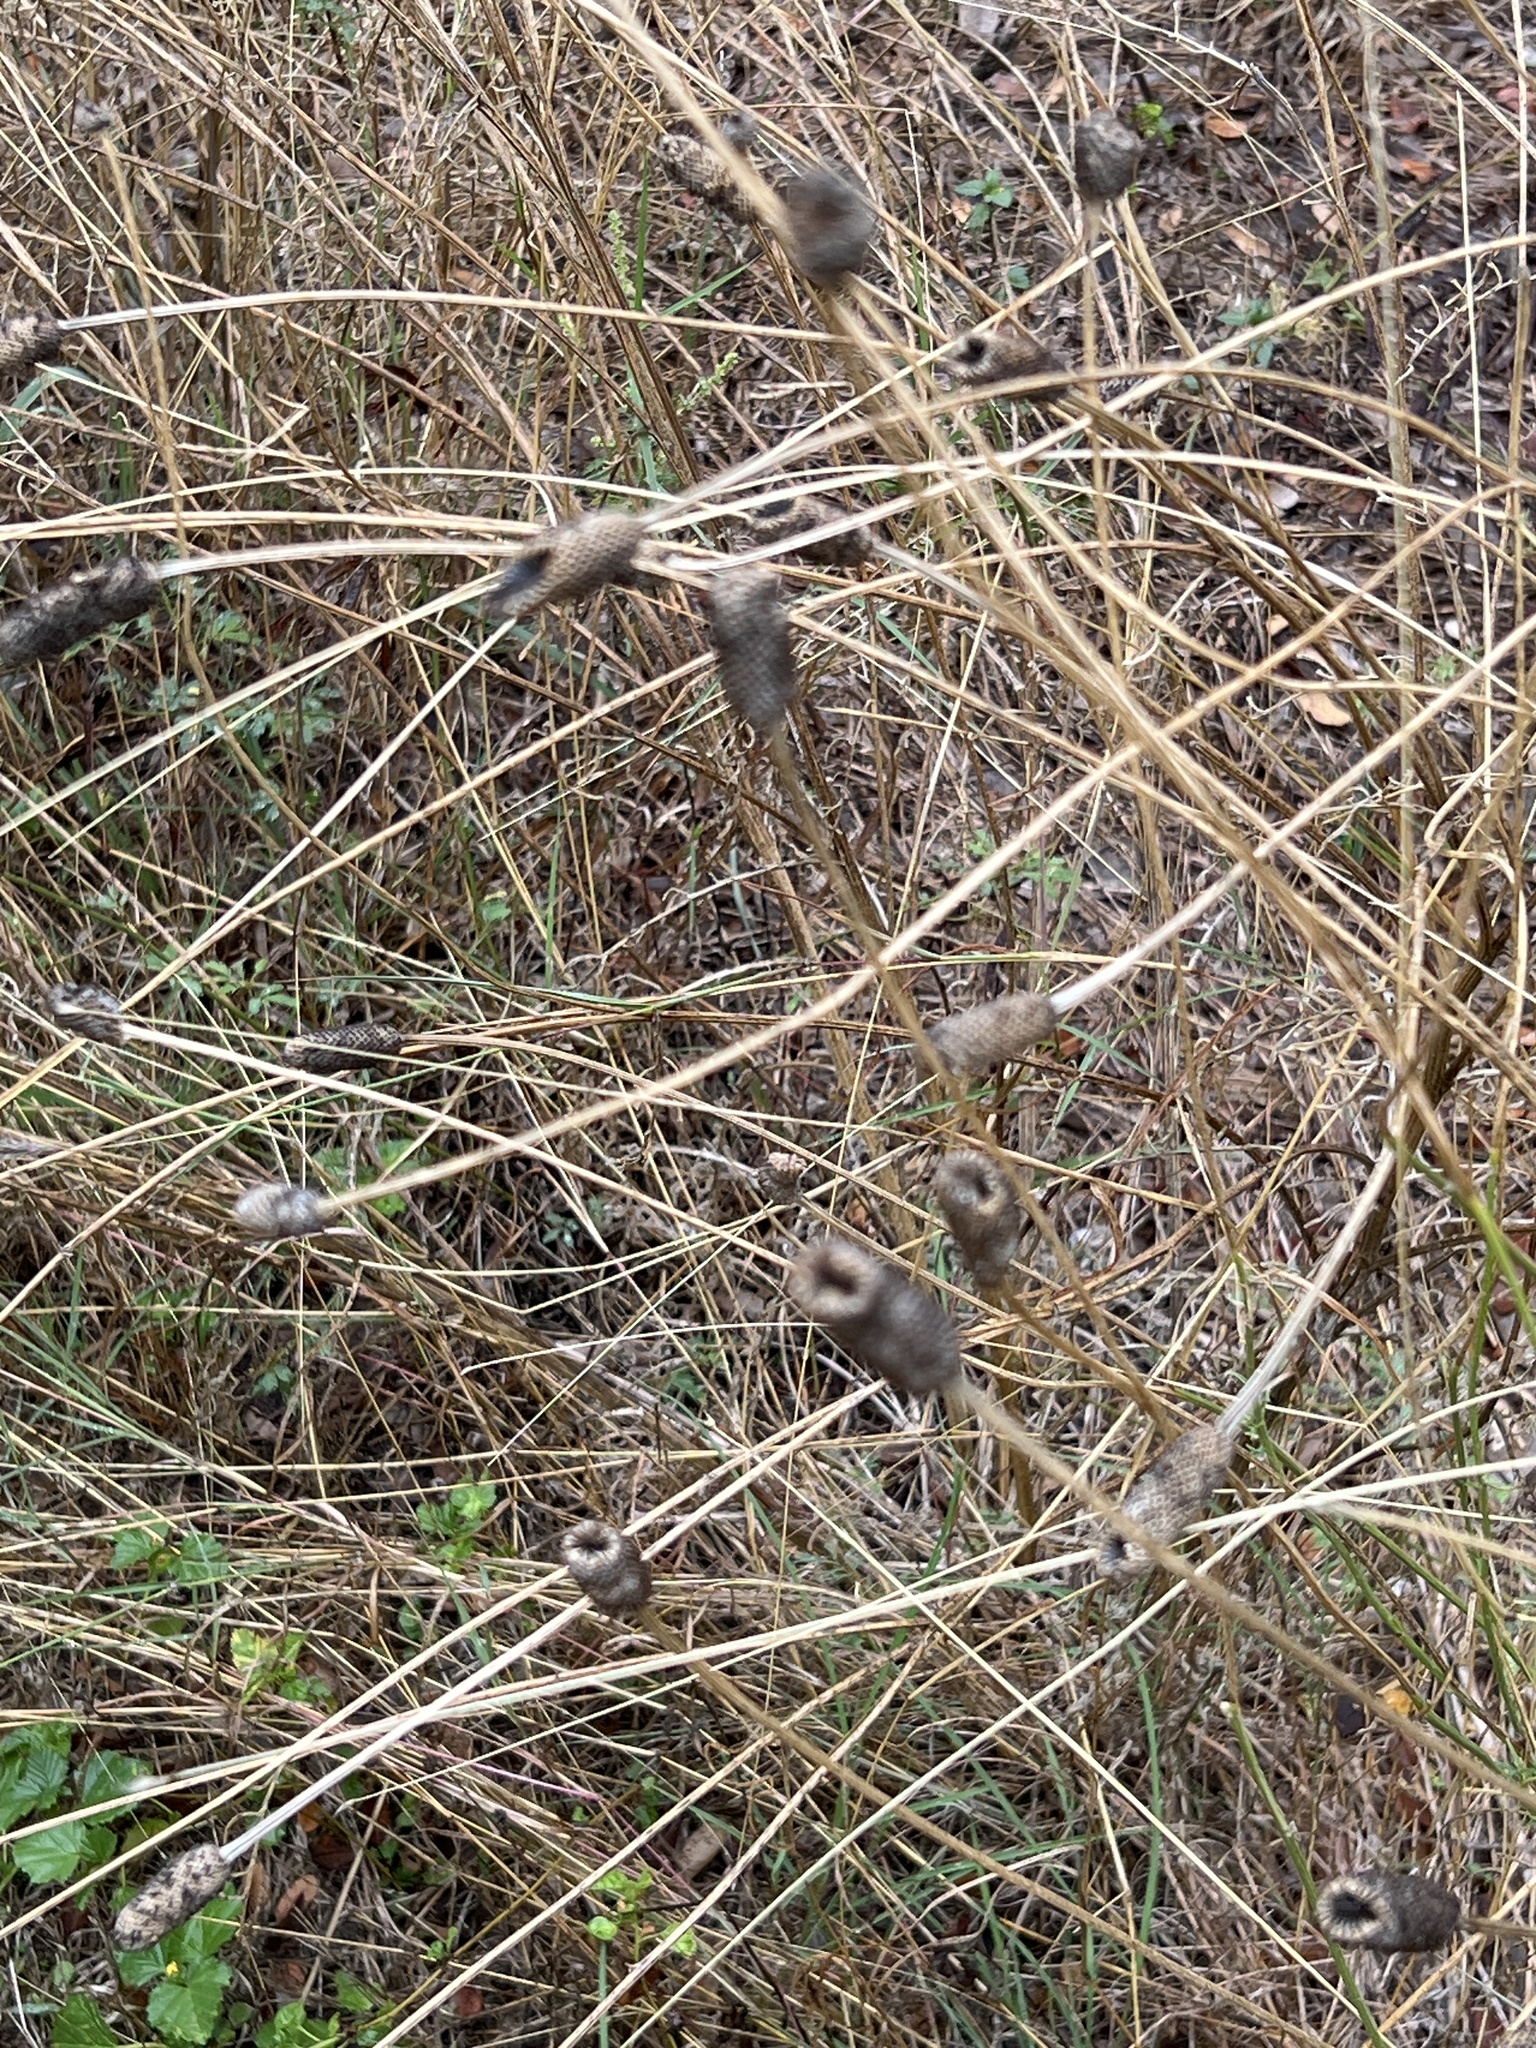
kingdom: Plantae
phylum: Tracheophyta
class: Magnoliopsida
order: Asterales
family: Asteraceae
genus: Ratibida
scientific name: Ratibida columnifera
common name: Prairie coneflower
